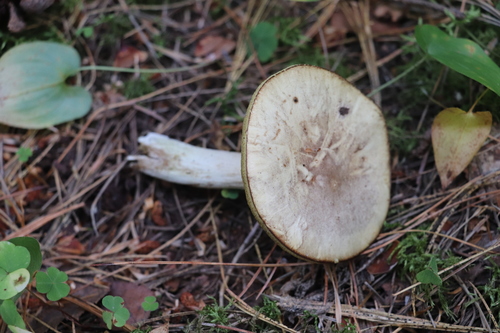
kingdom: Fungi
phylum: Basidiomycota
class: Agaricomycetes
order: Boletales
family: Suillaceae
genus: Suillus
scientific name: Suillus placidus
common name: Slippery white bolete
